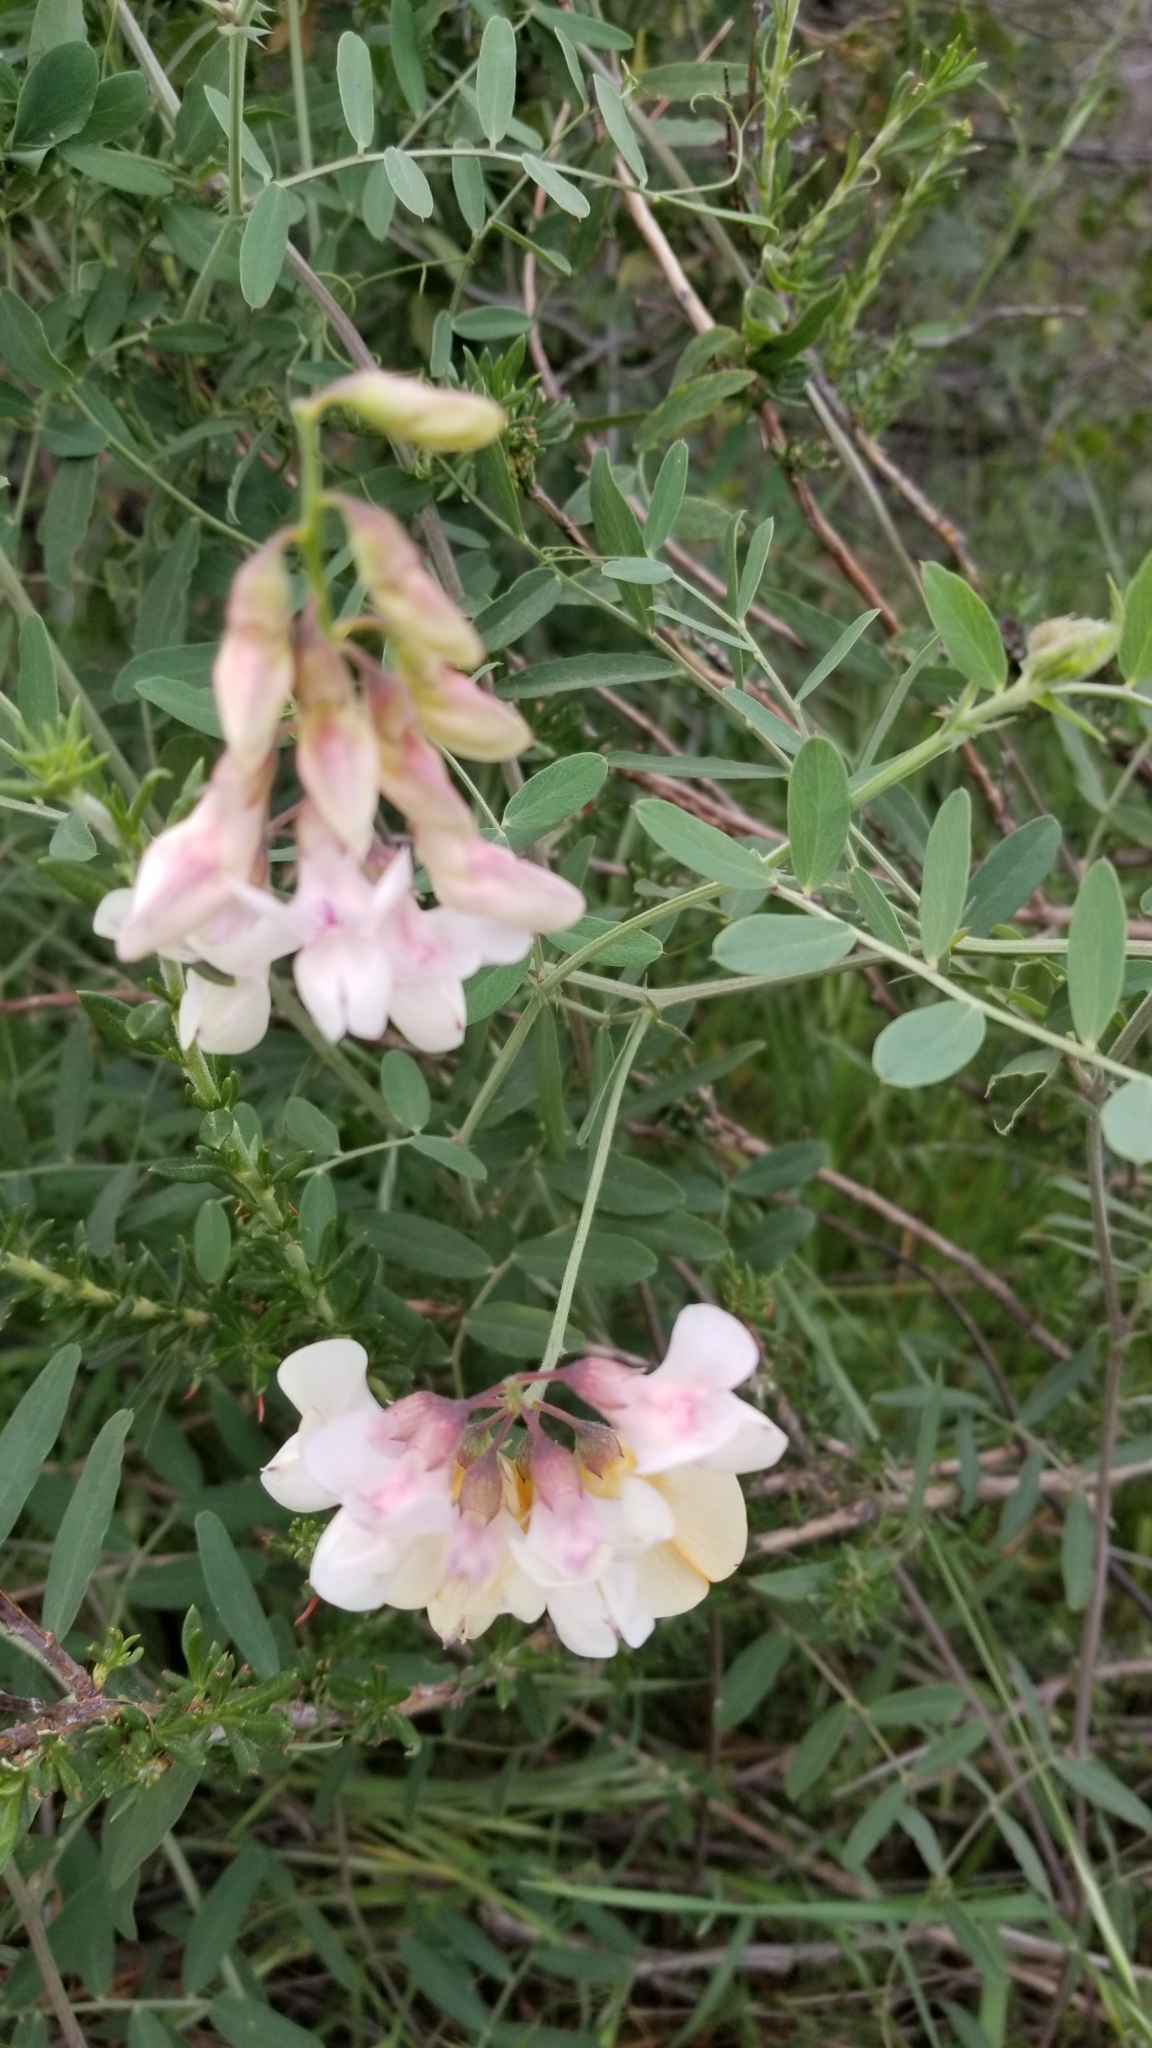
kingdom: Plantae
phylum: Tracheophyta
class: Magnoliopsida
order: Fabales
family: Fabaceae
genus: Lathyrus
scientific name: Lathyrus vestitus
